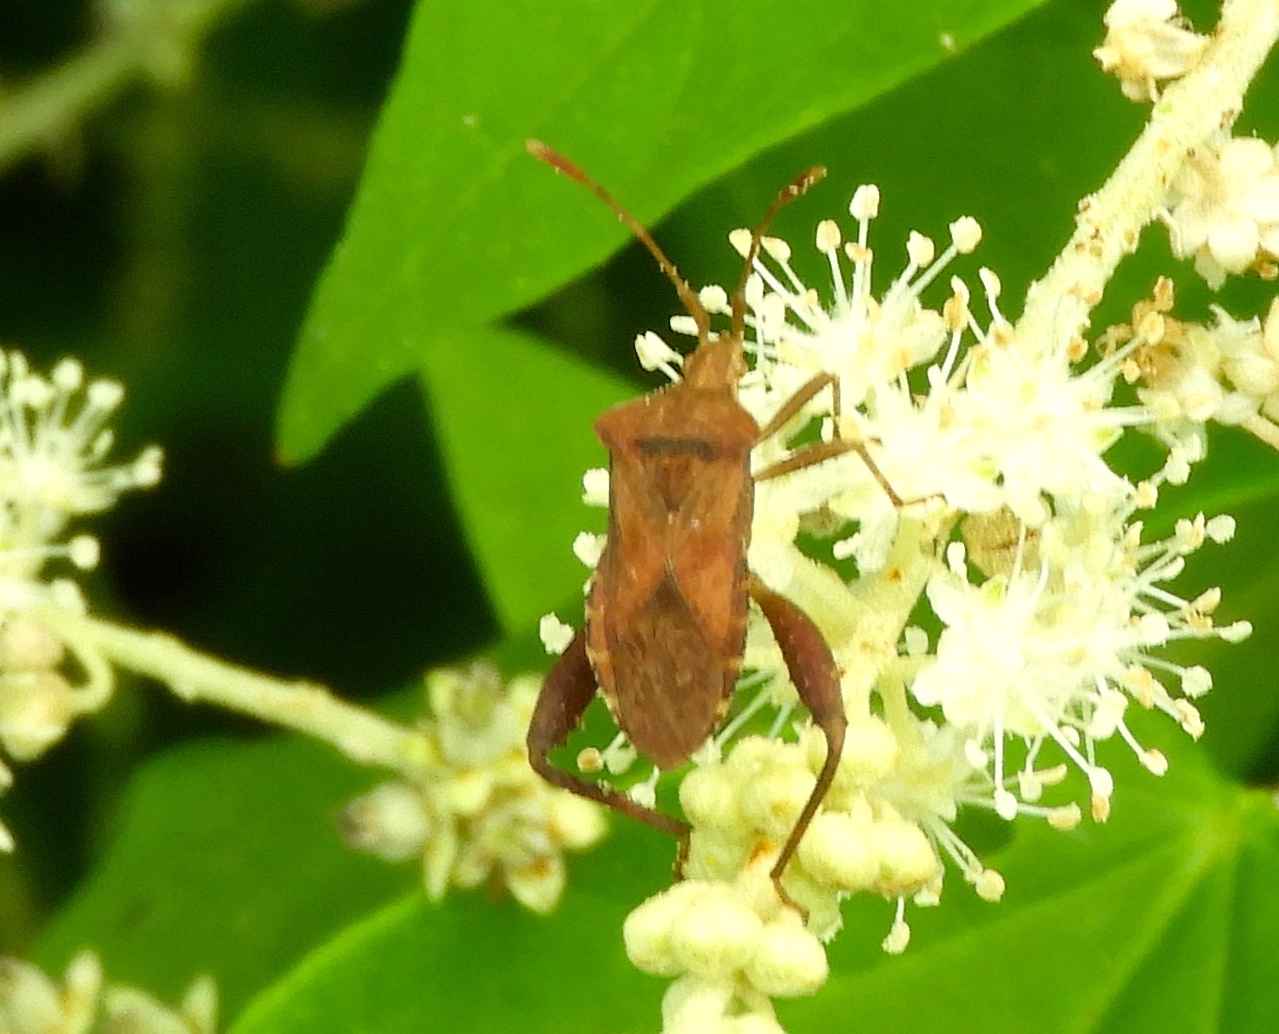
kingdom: Animalia
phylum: Arthropoda
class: Insecta
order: Hemiptera
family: Coreidae
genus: Mamurius
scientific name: Mamurius mopsus
